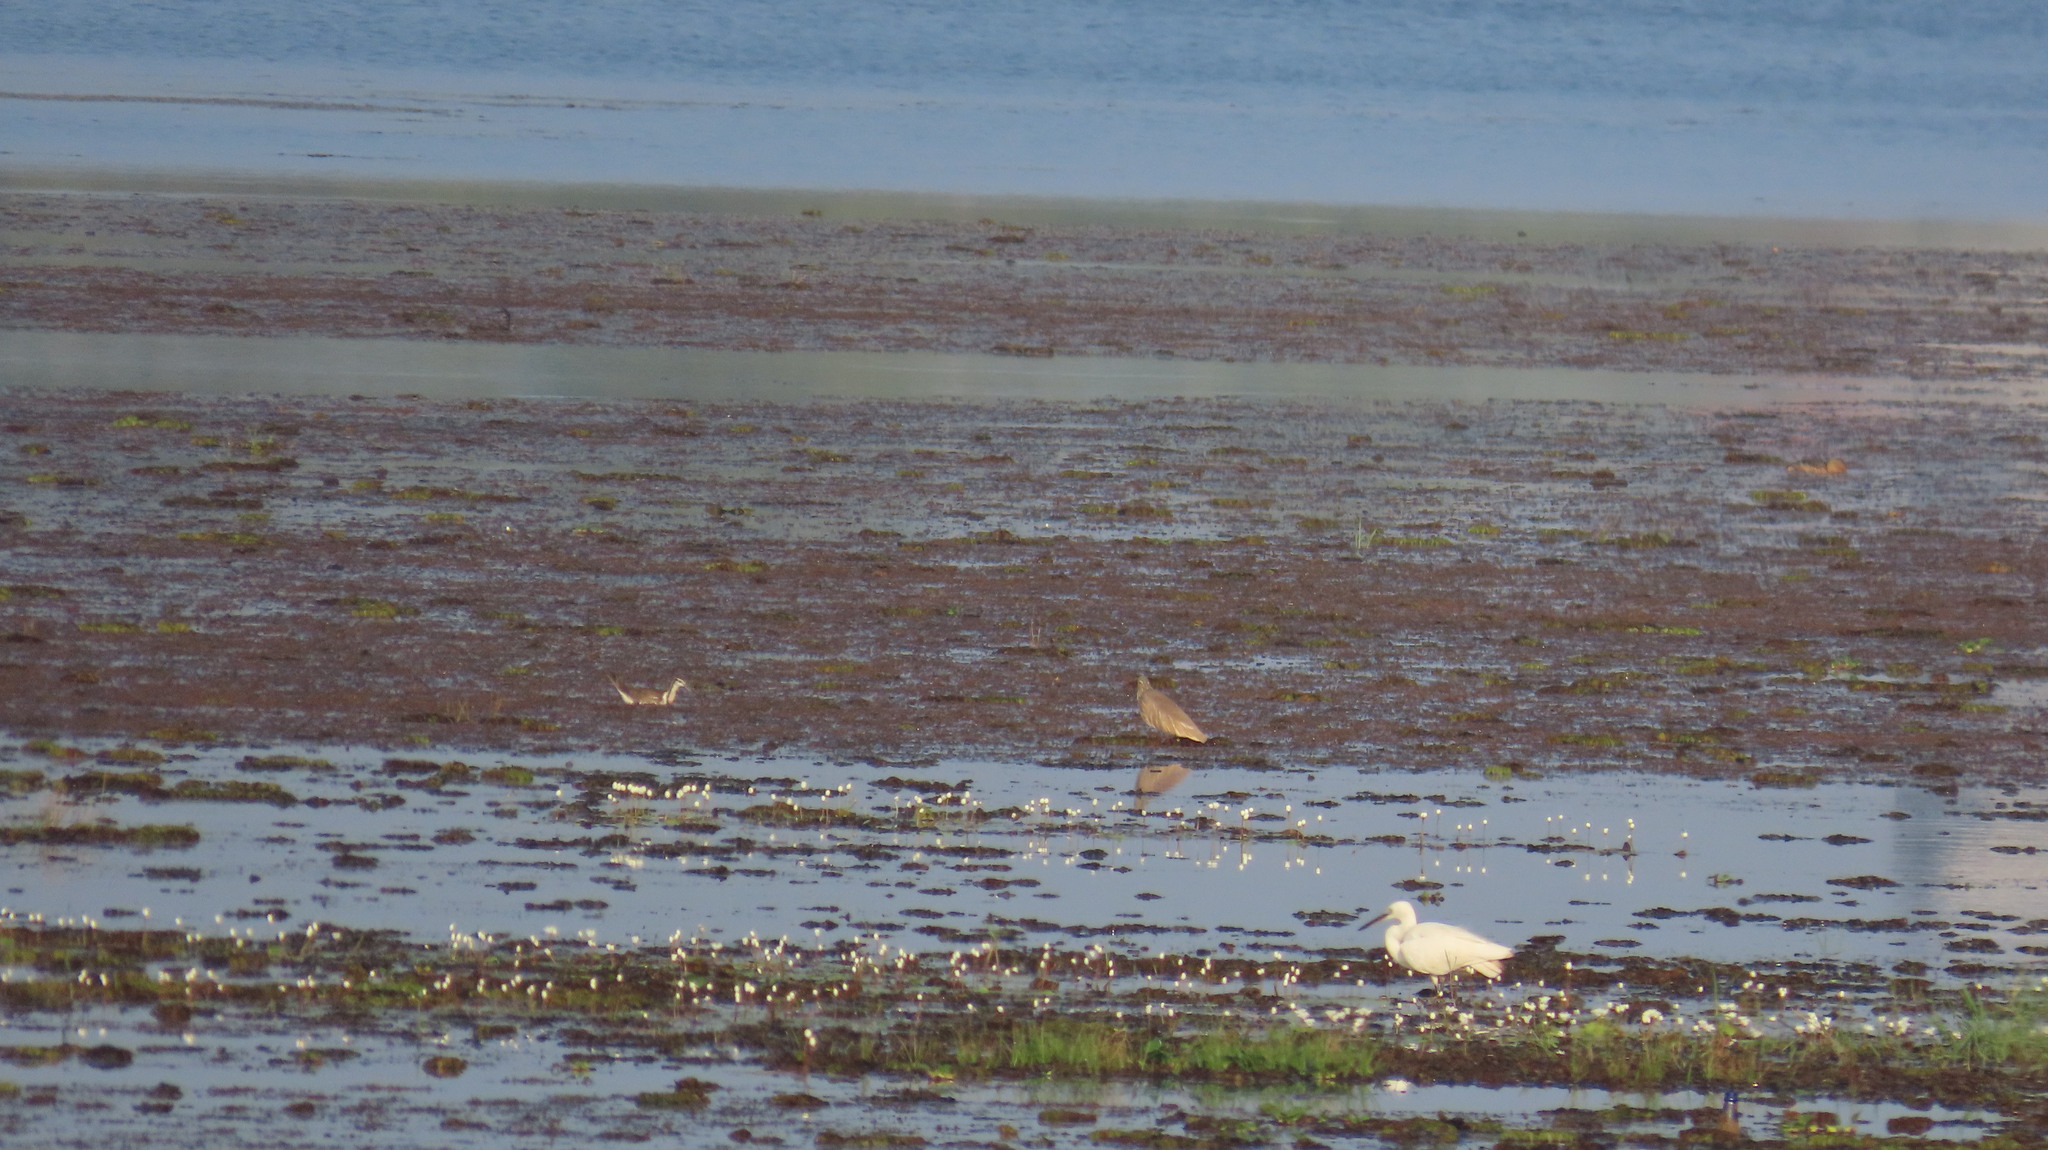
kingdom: Animalia
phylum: Chordata
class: Aves
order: Pelecaniformes
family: Ardeidae
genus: Egretta
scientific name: Egretta garzetta
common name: Little egret
